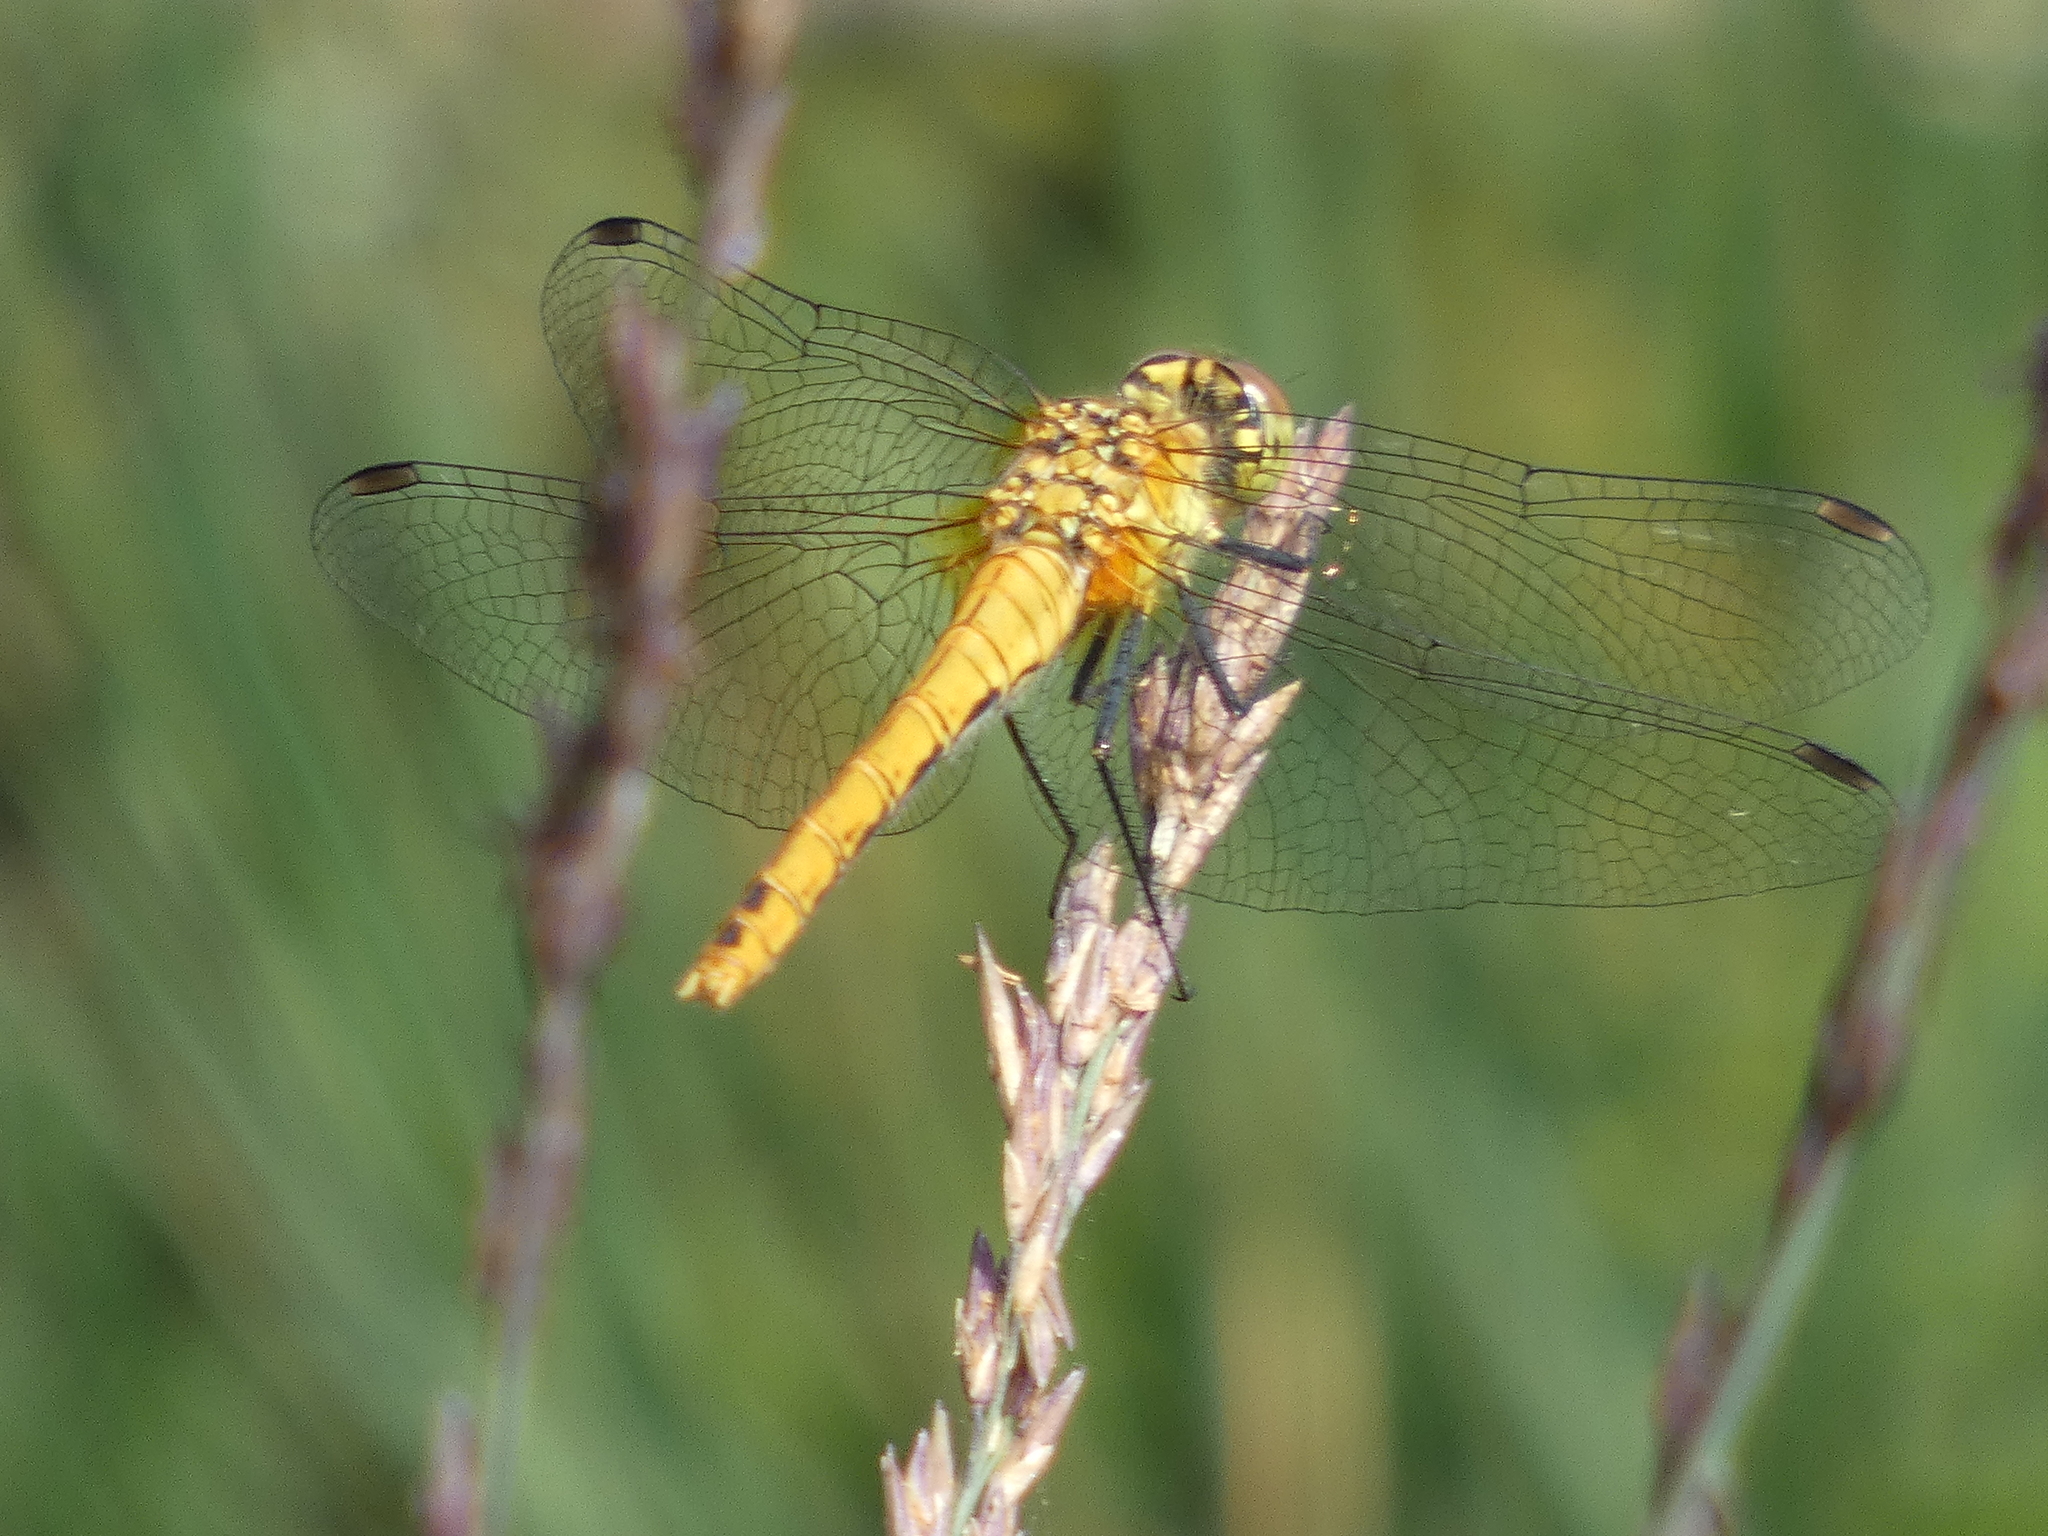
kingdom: Animalia
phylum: Arthropoda
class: Insecta
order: Odonata
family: Libellulidae
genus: Sympetrum
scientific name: Sympetrum sanguineum
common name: Ruddy darter
